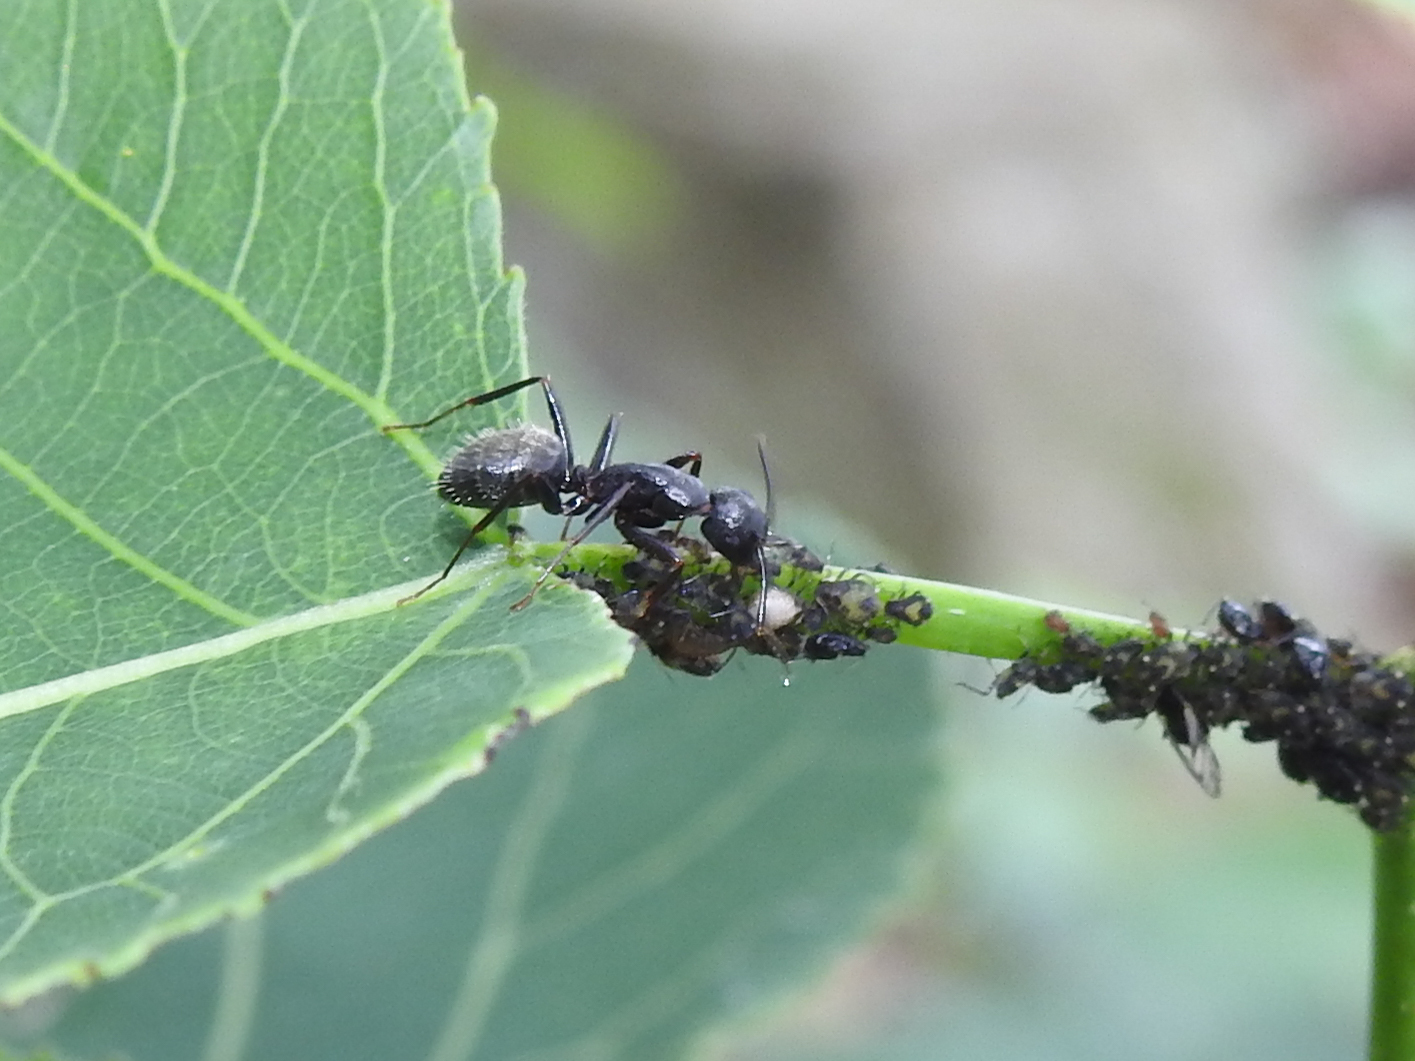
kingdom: Animalia
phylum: Arthropoda
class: Insecta
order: Hymenoptera
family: Formicidae
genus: Camponotus
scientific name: Camponotus pennsylvanicus
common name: Black carpenter ant
